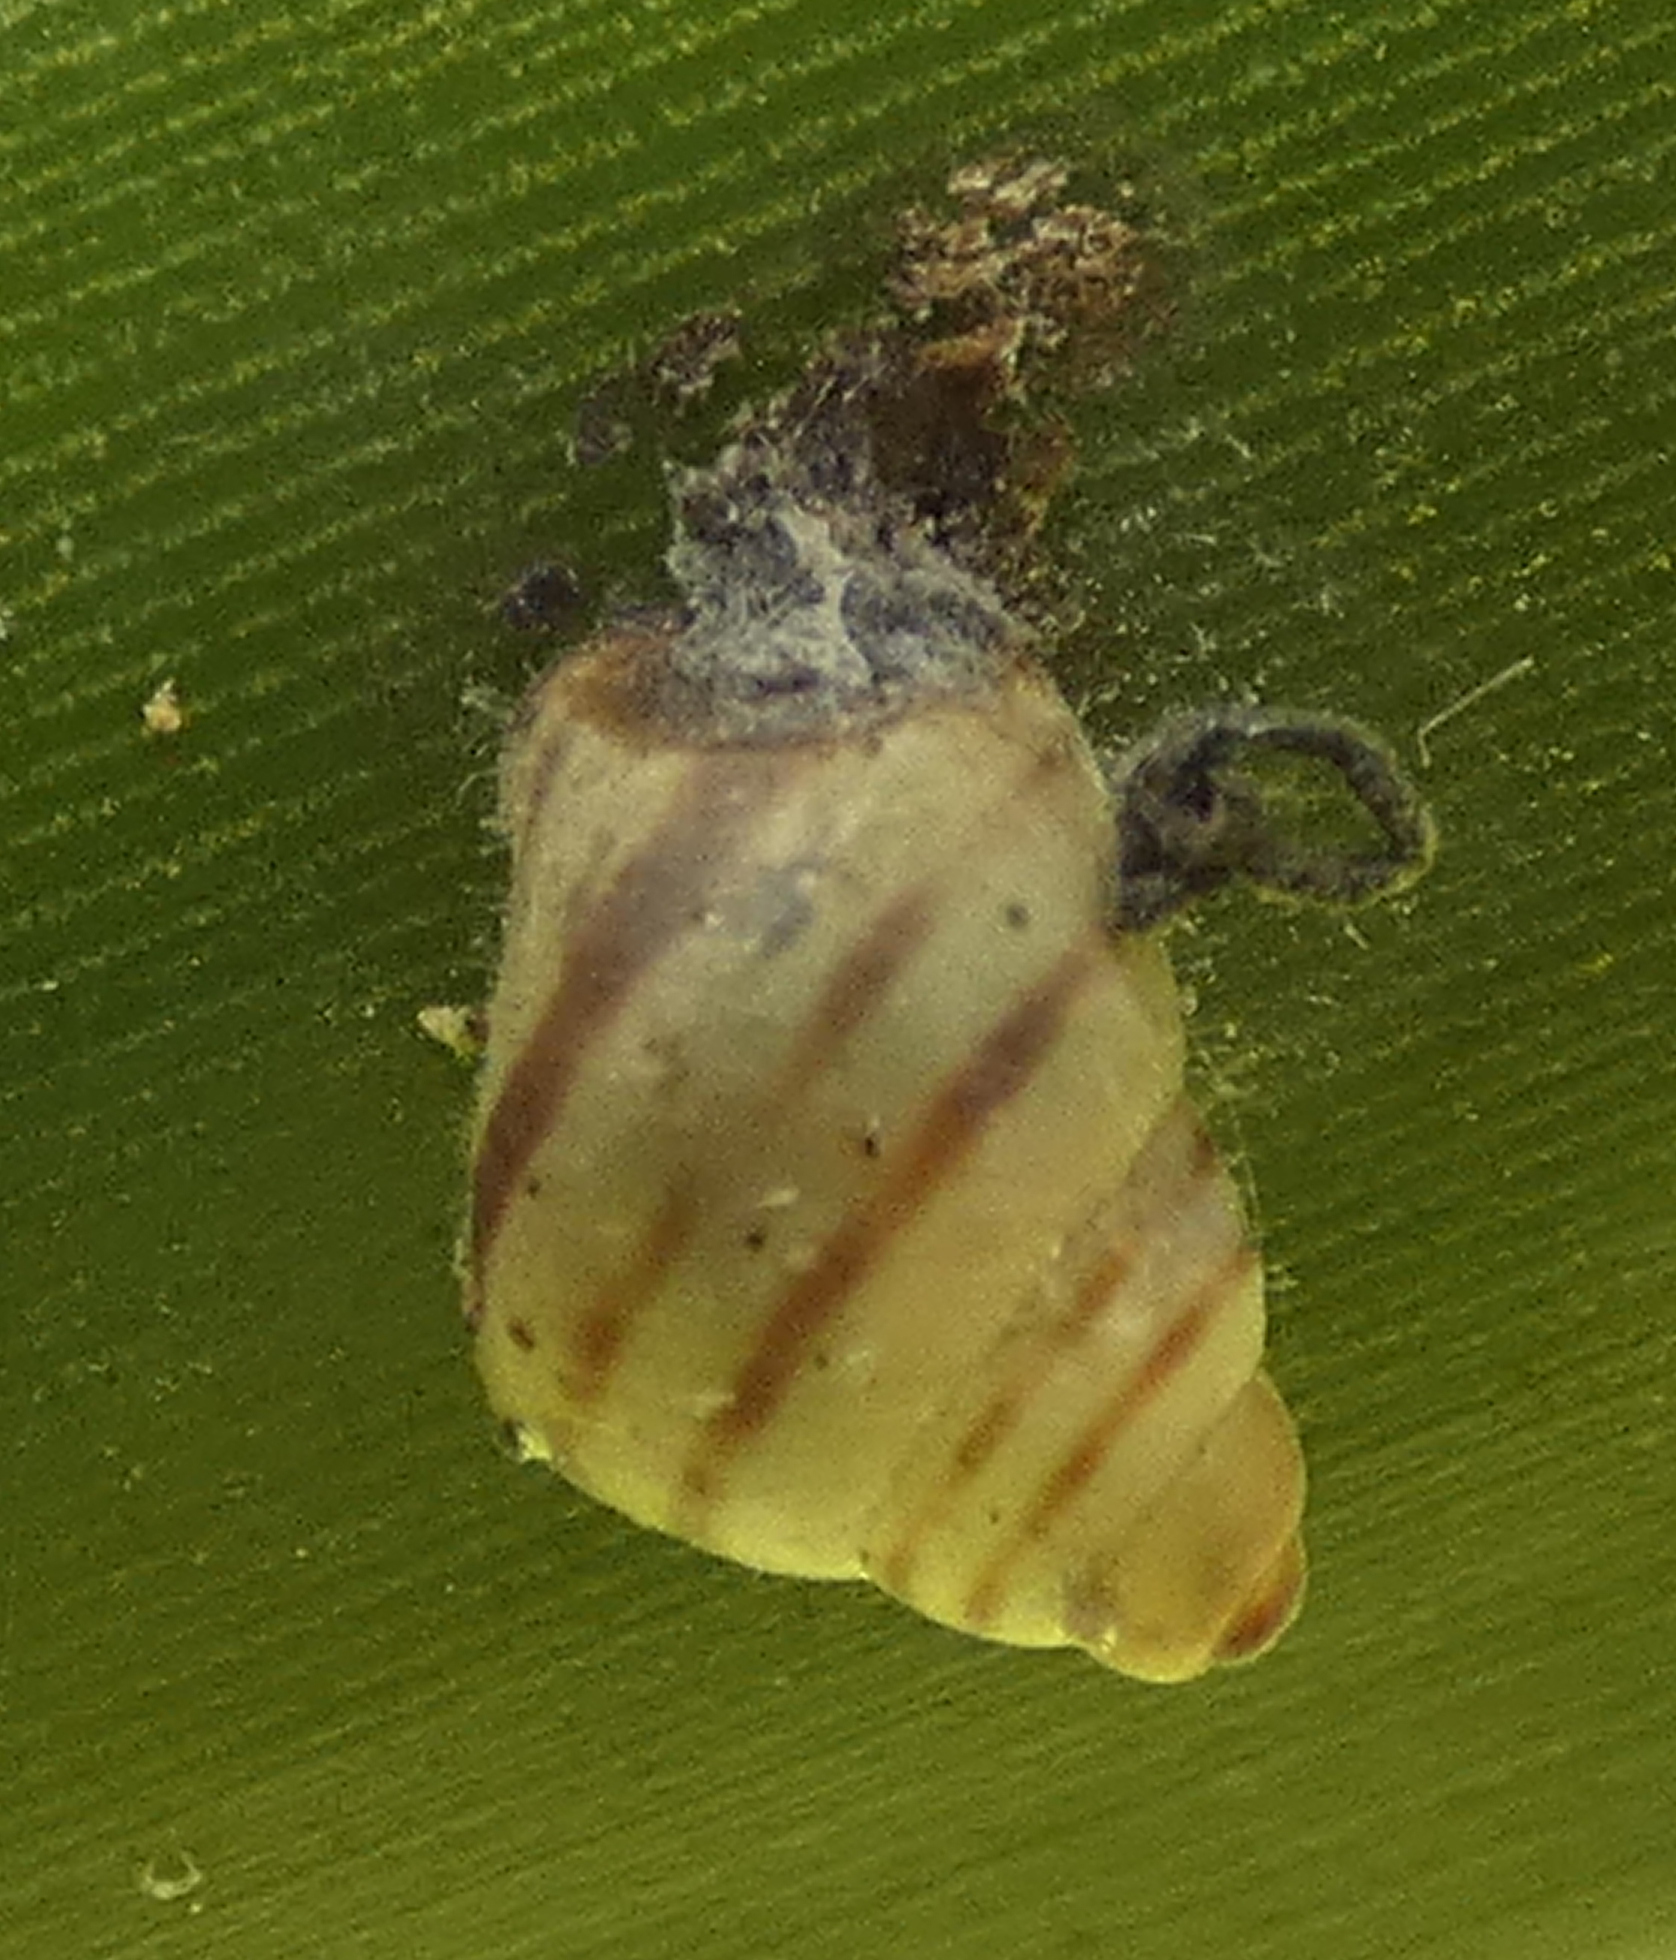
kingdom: Animalia
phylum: Mollusca
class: Gastropoda
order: Stylommatophora
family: Bulimulidae
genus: Drymaeus
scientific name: Drymaeus
